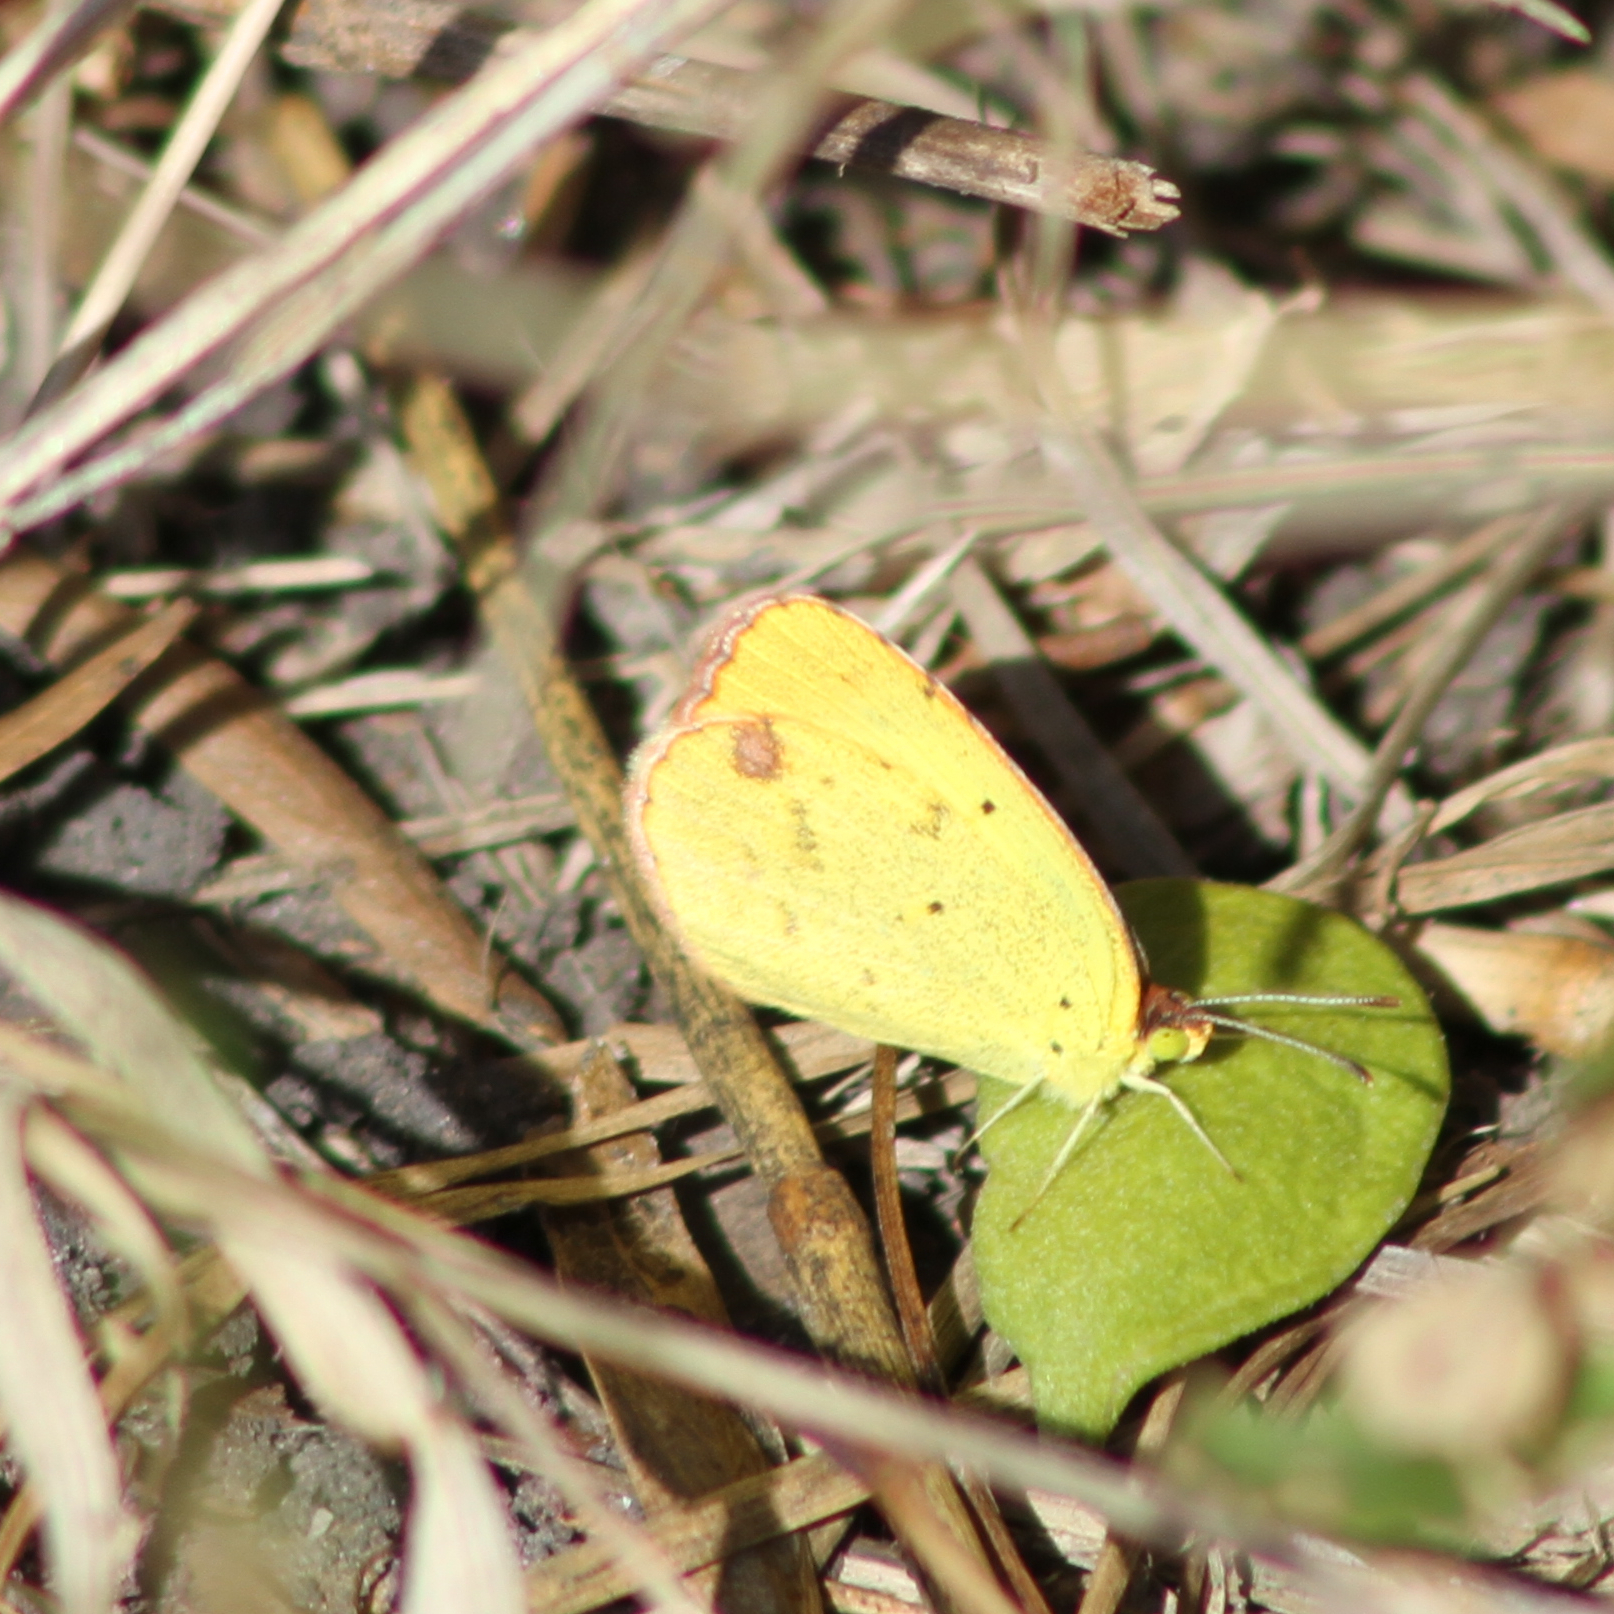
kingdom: Animalia
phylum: Arthropoda
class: Insecta
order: Lepidoptera
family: Pieridae
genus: Pyrisitia
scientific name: Pyrisitia lisa
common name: Little yellow
